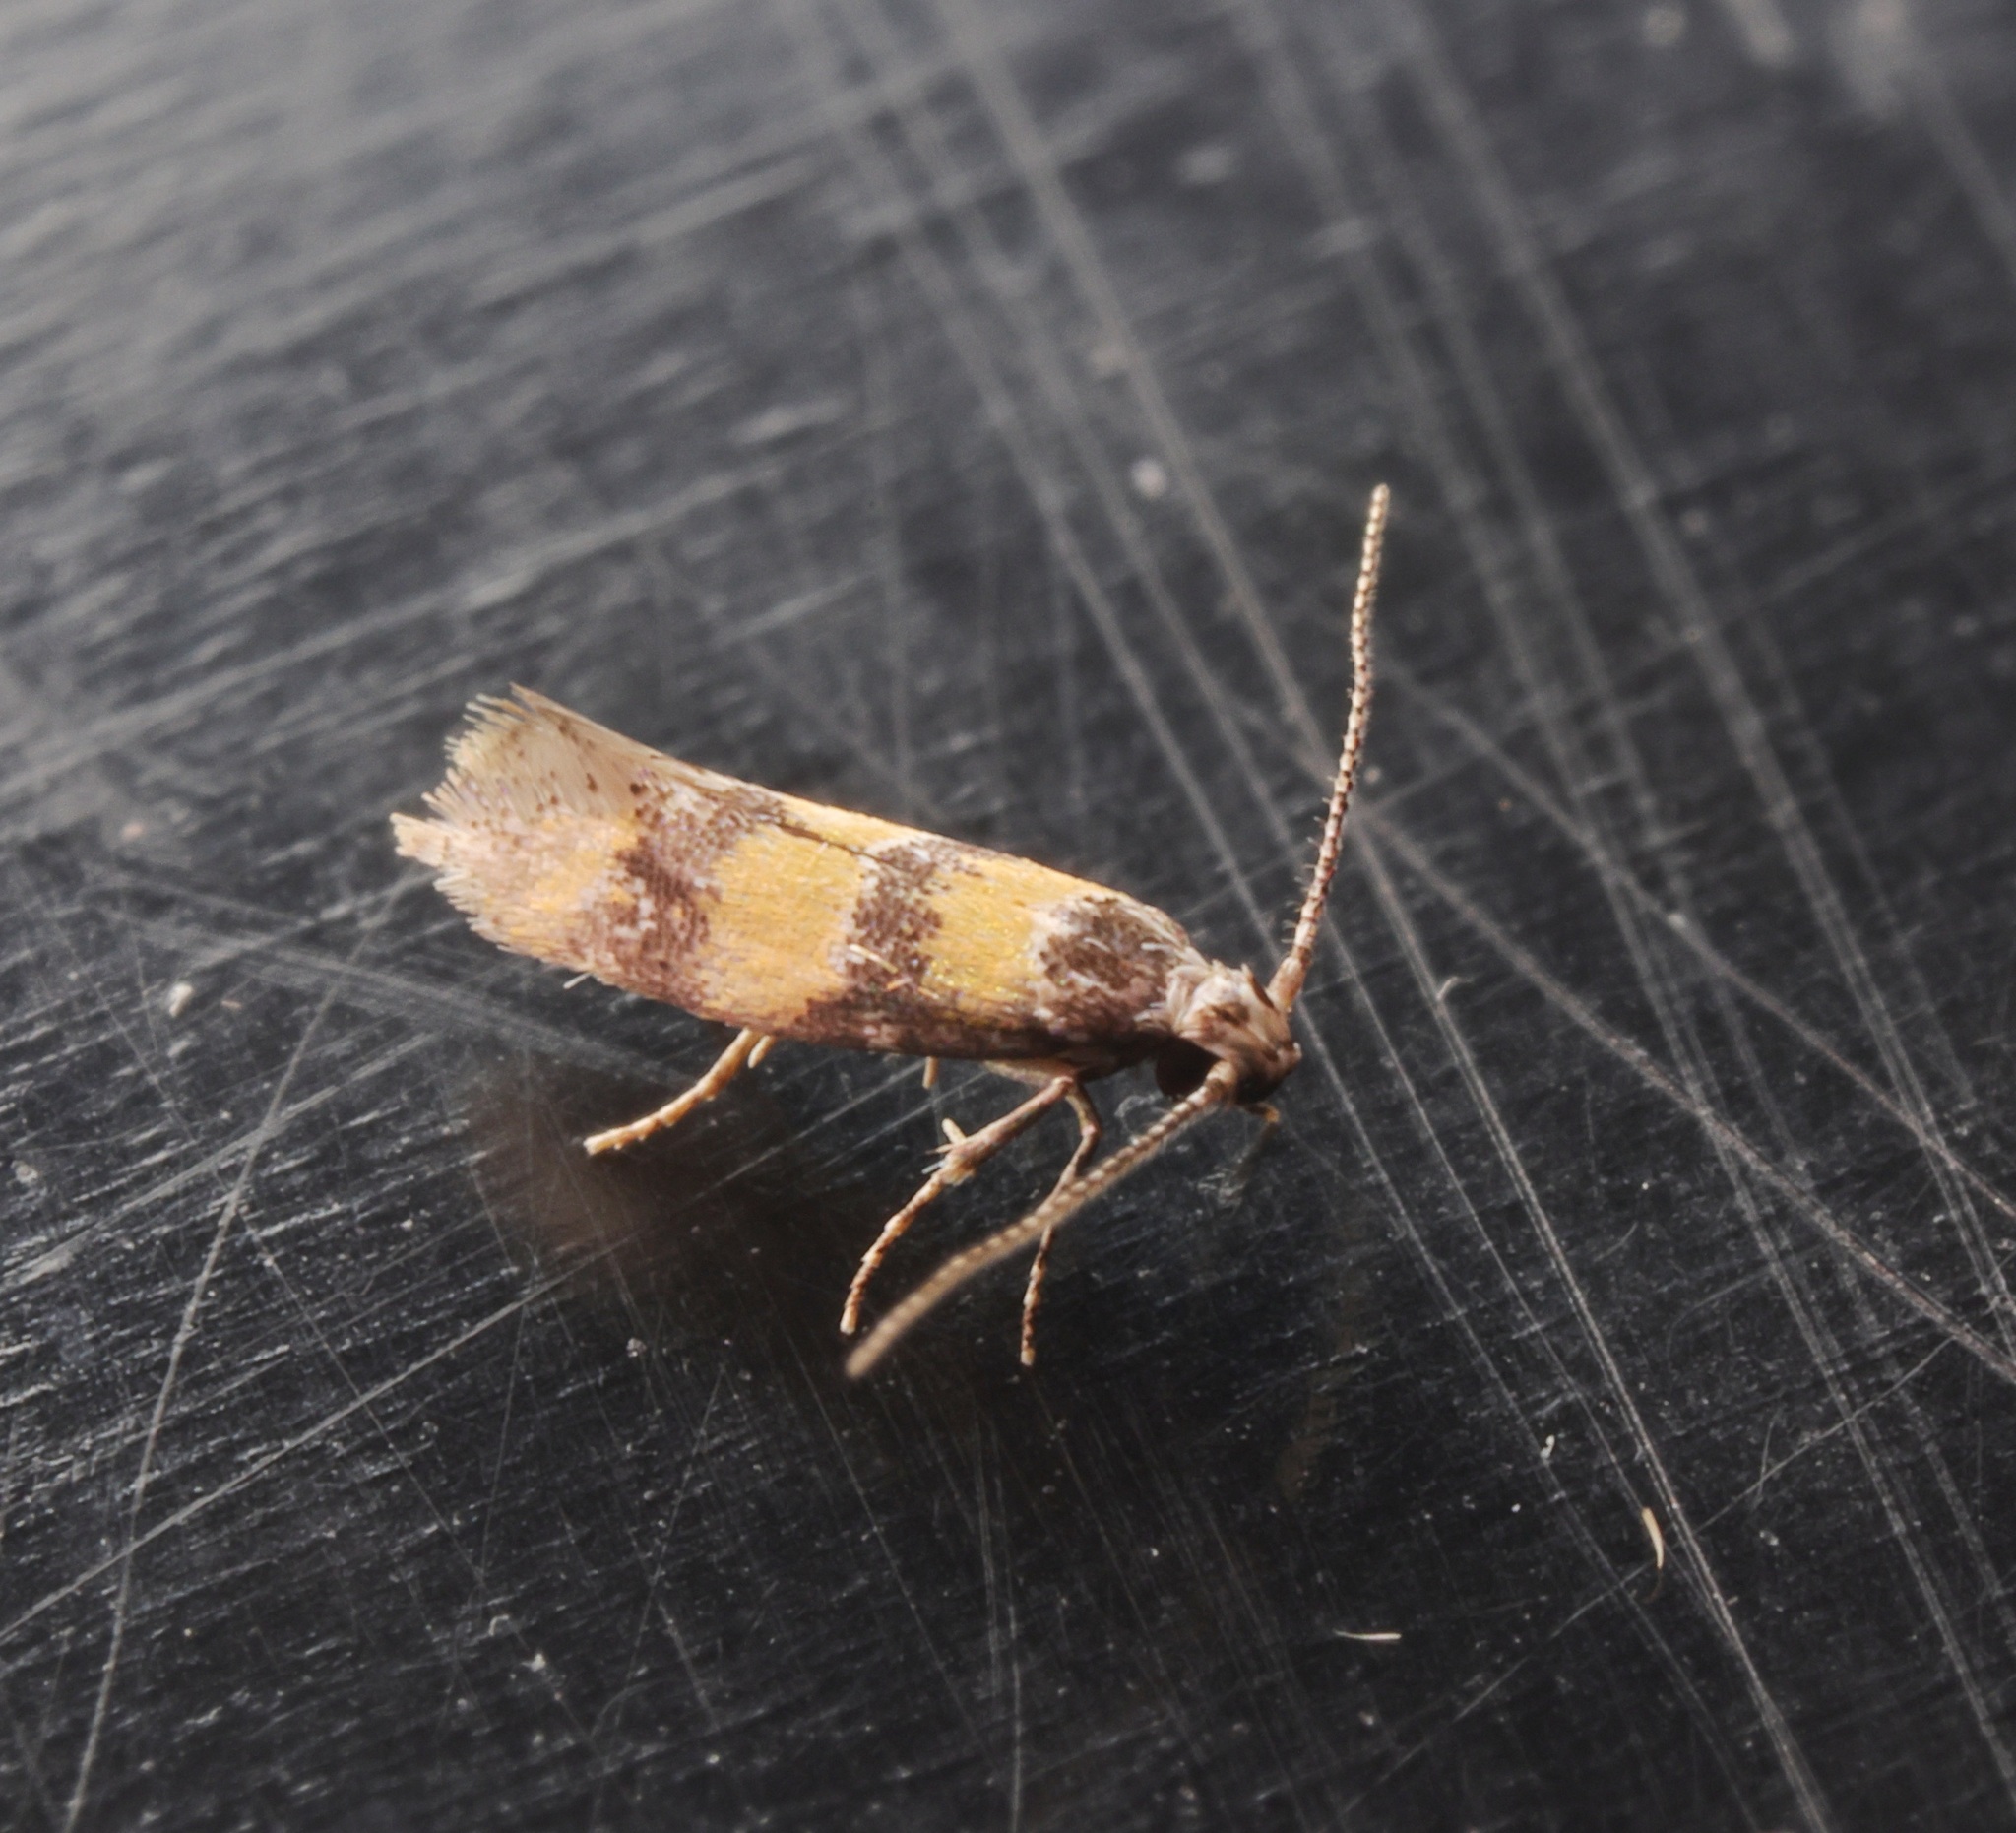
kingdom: Animalia
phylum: Arthropoda
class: Insecta
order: Lepidoptera
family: Oecophoridae
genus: Promalactis
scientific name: Promalactis lobatifera
